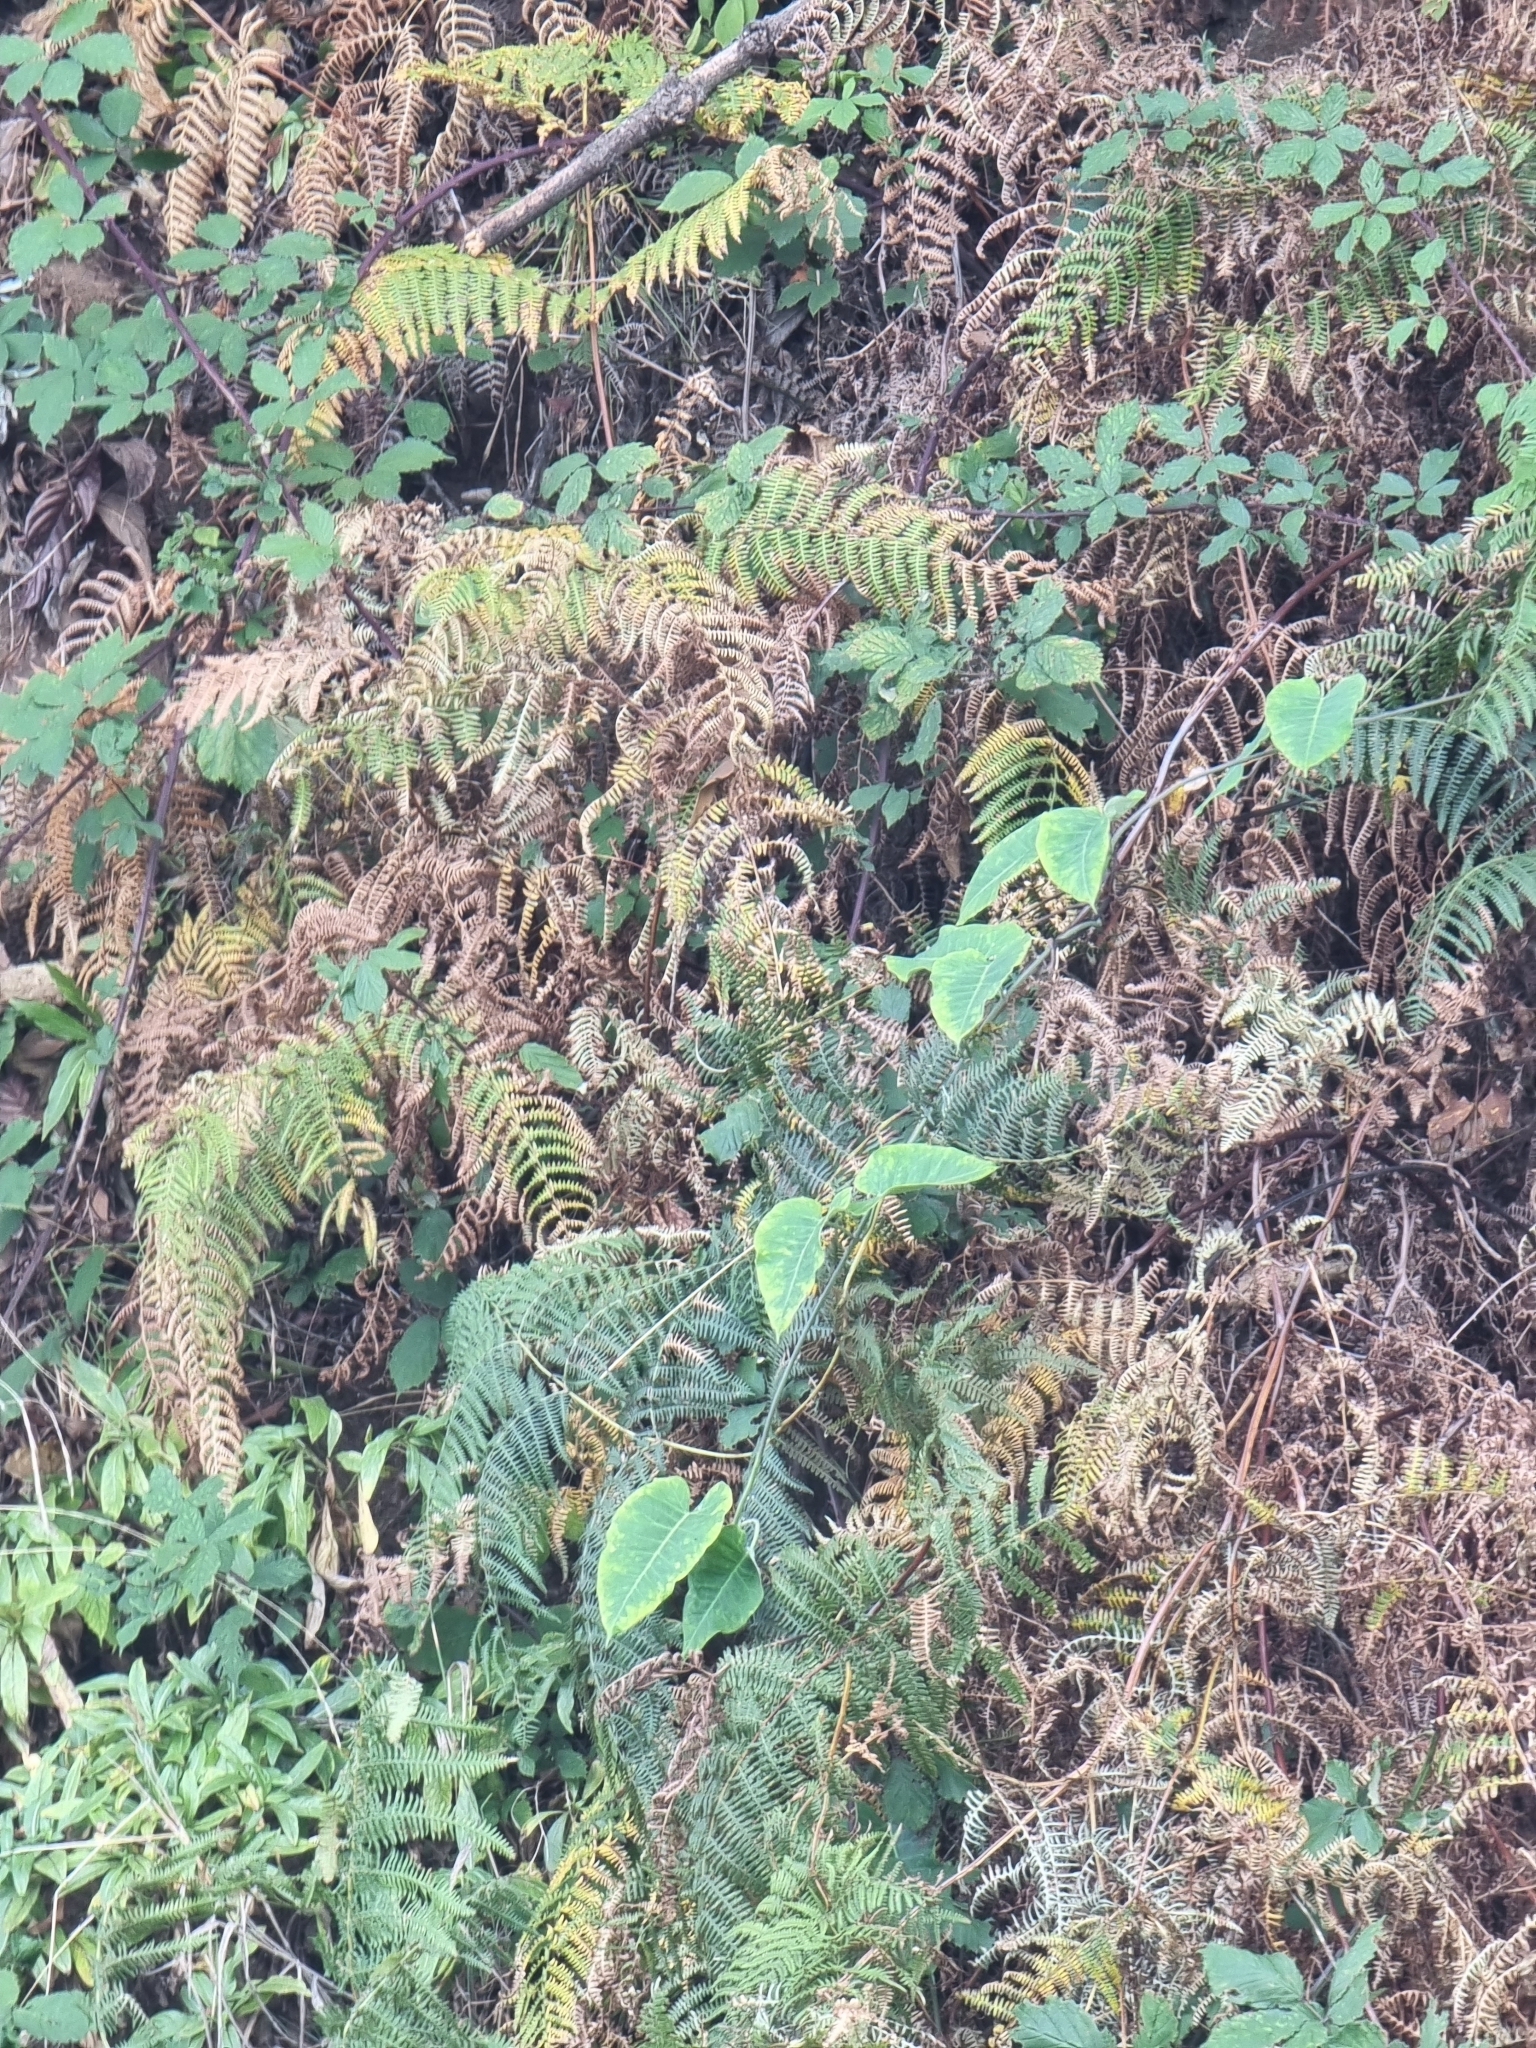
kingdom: Plantae
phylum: Tracheophyta
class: Magnoliopsida
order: Gentianales
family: Apocynaceae
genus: Araujia
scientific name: Araujia sericifera
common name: White bladderflower
